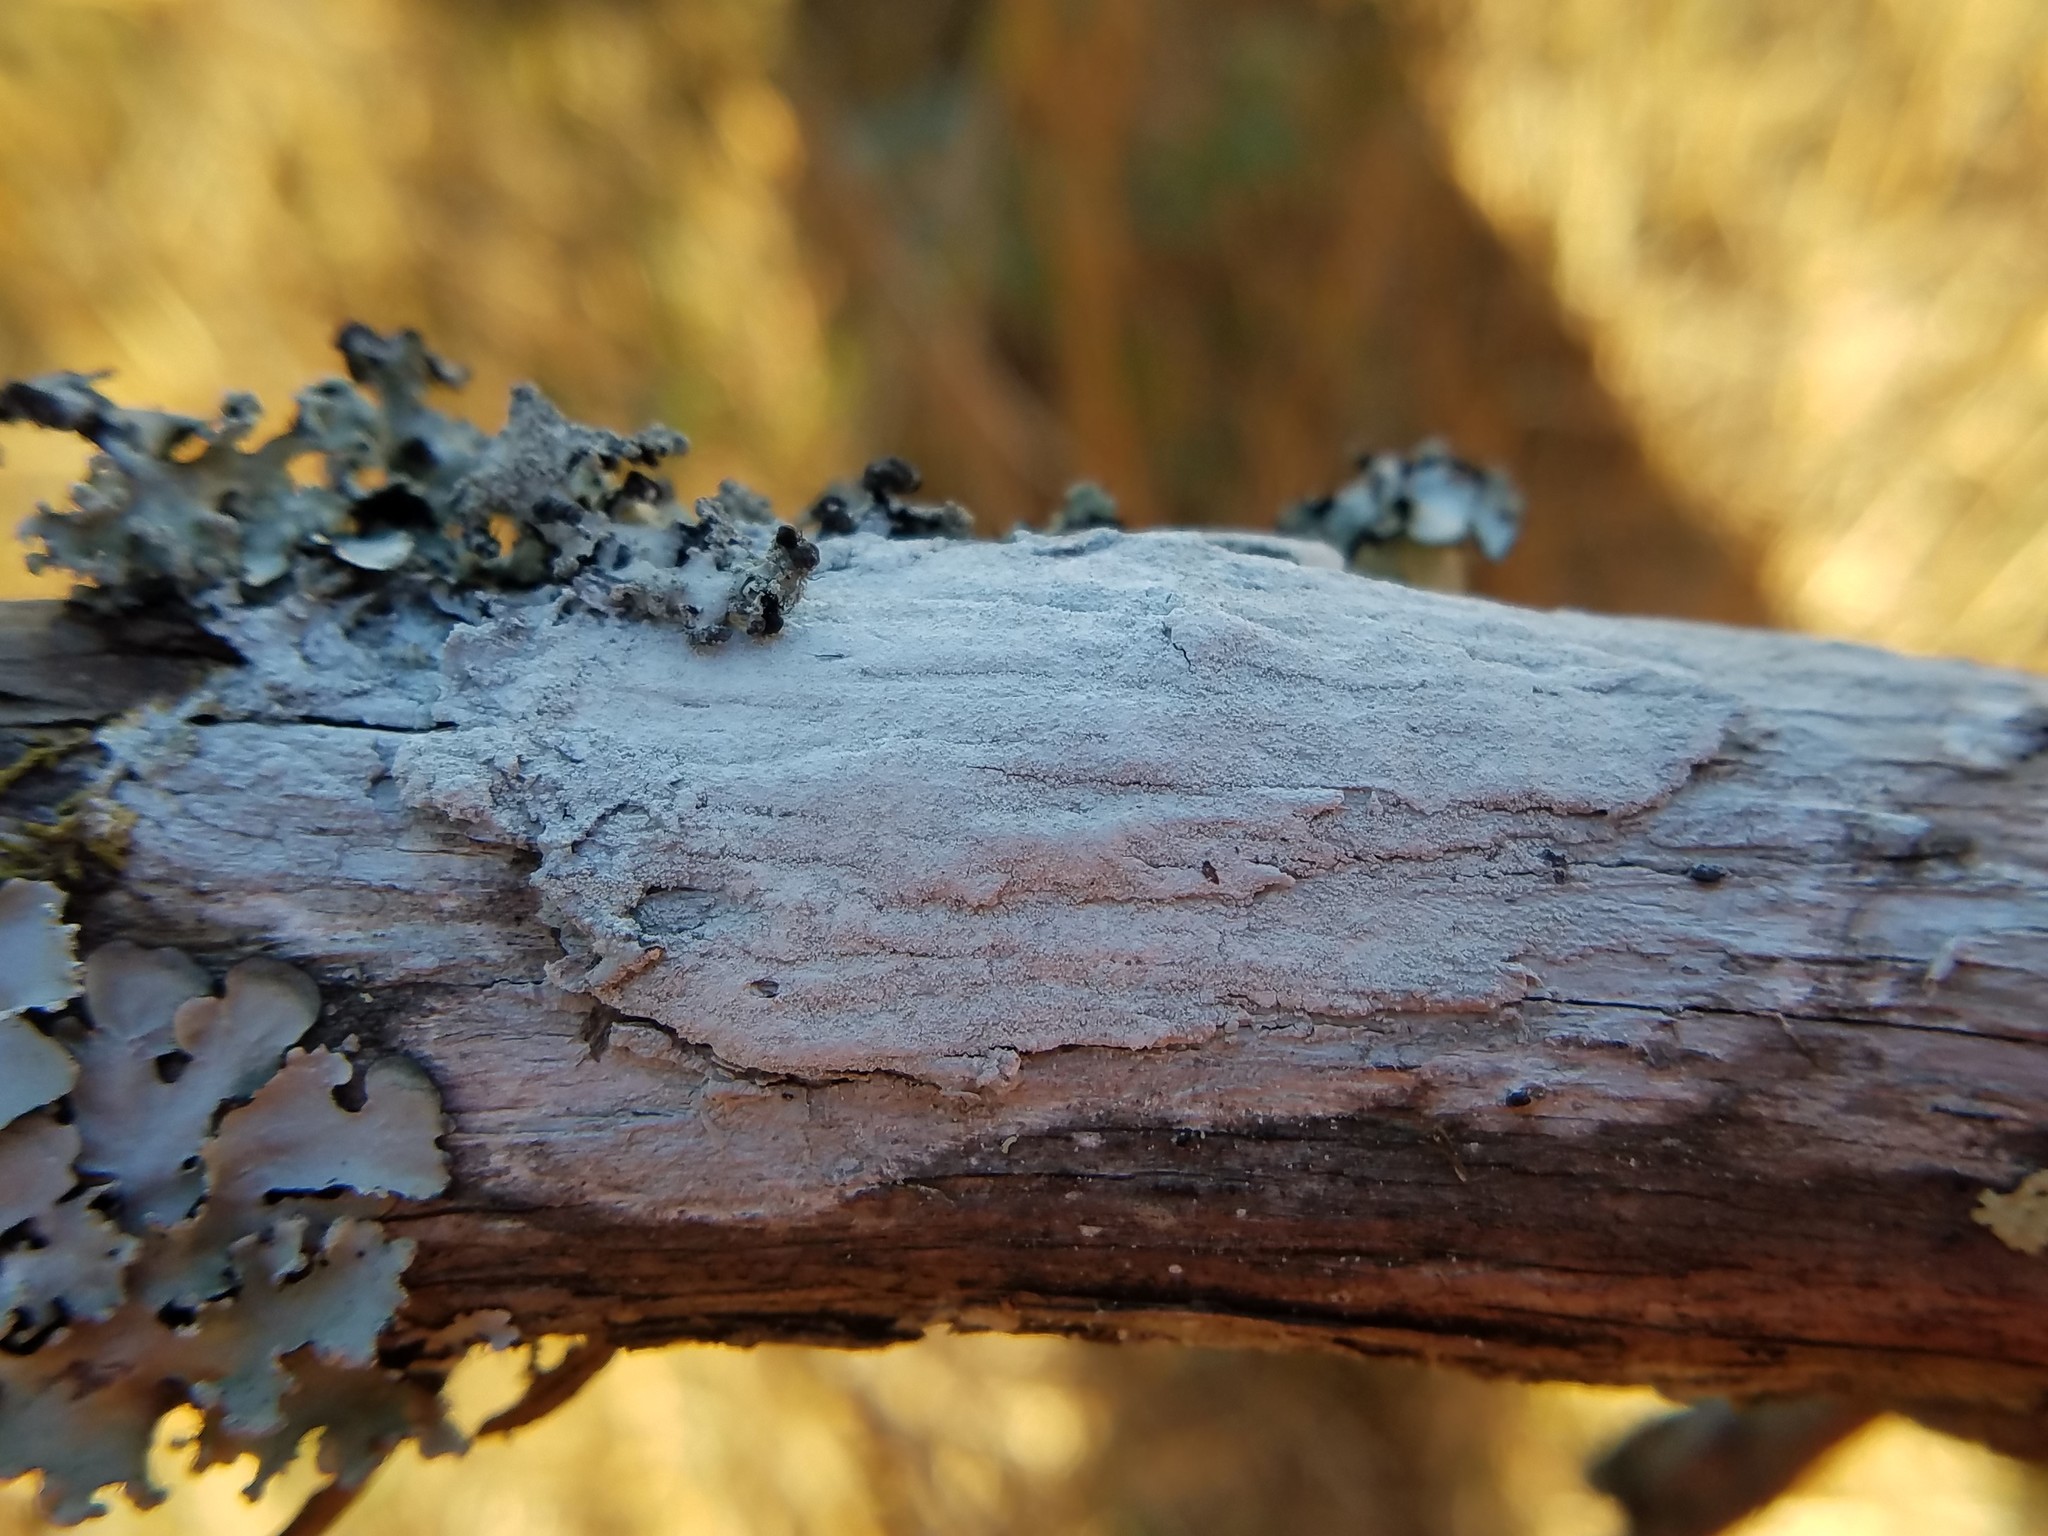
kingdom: Fungi
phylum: Ascomycota
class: Lecanoromycetes
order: Pertusariales
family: Pertusariaceae
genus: Lepra
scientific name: Lepra pustulata
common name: Pustule crust lichen
